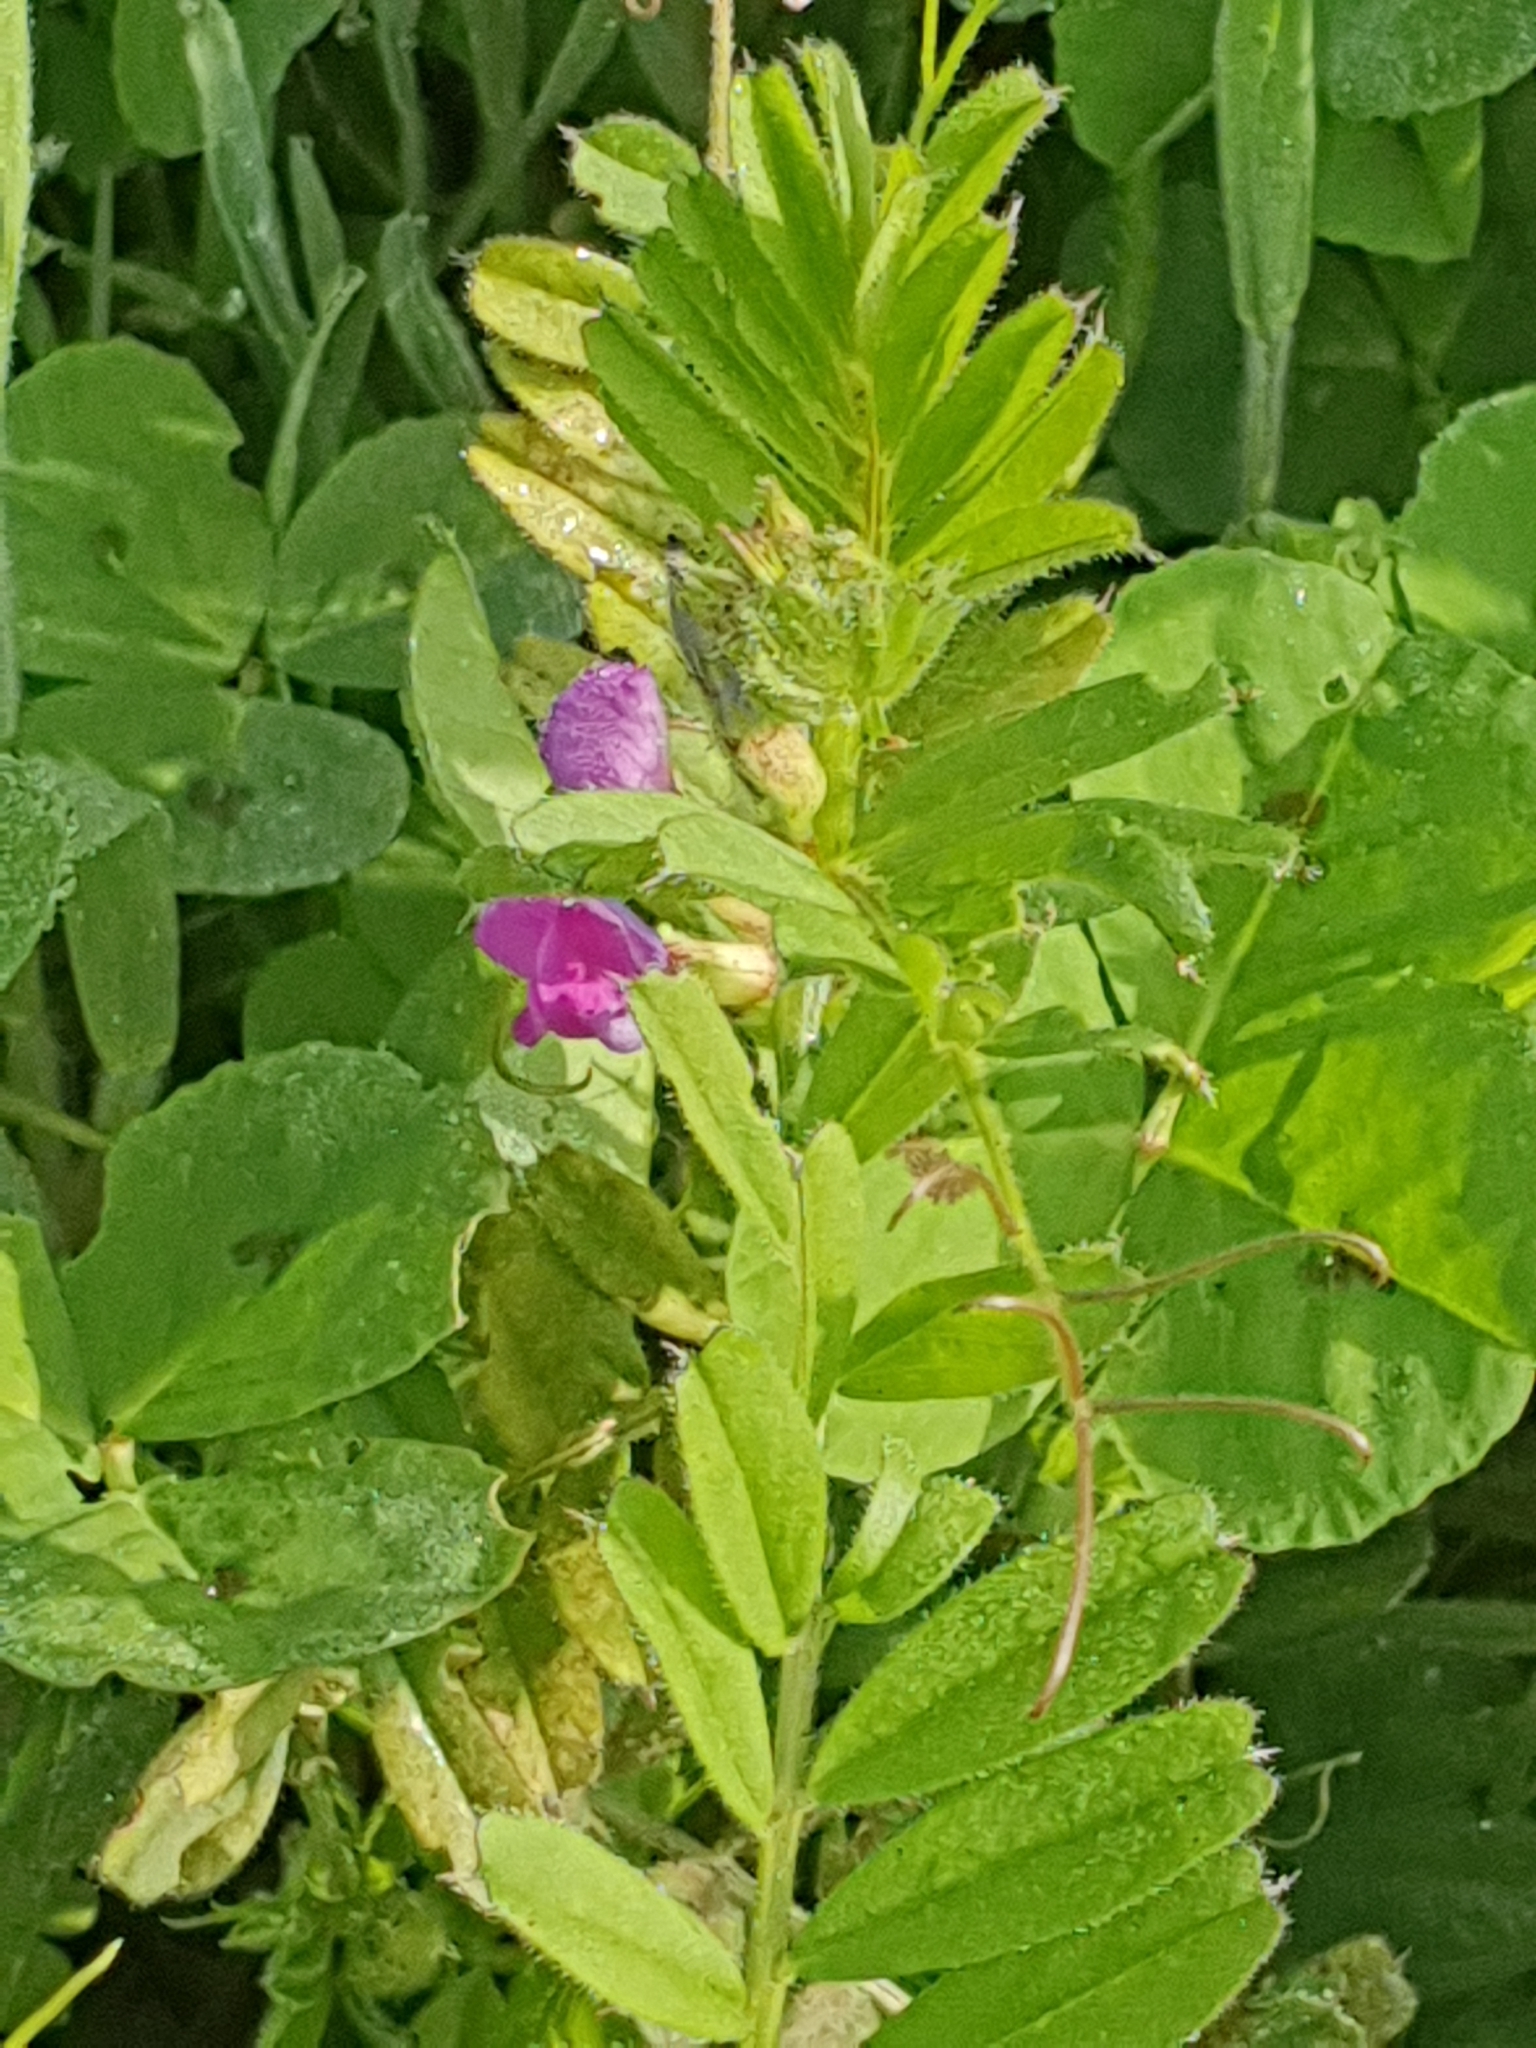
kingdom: Plantae
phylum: Tracheophyta
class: Magnoliopsida
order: Fabales
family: Fabaceae
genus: Vicia
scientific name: Vicia sativa
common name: Garden vetch
